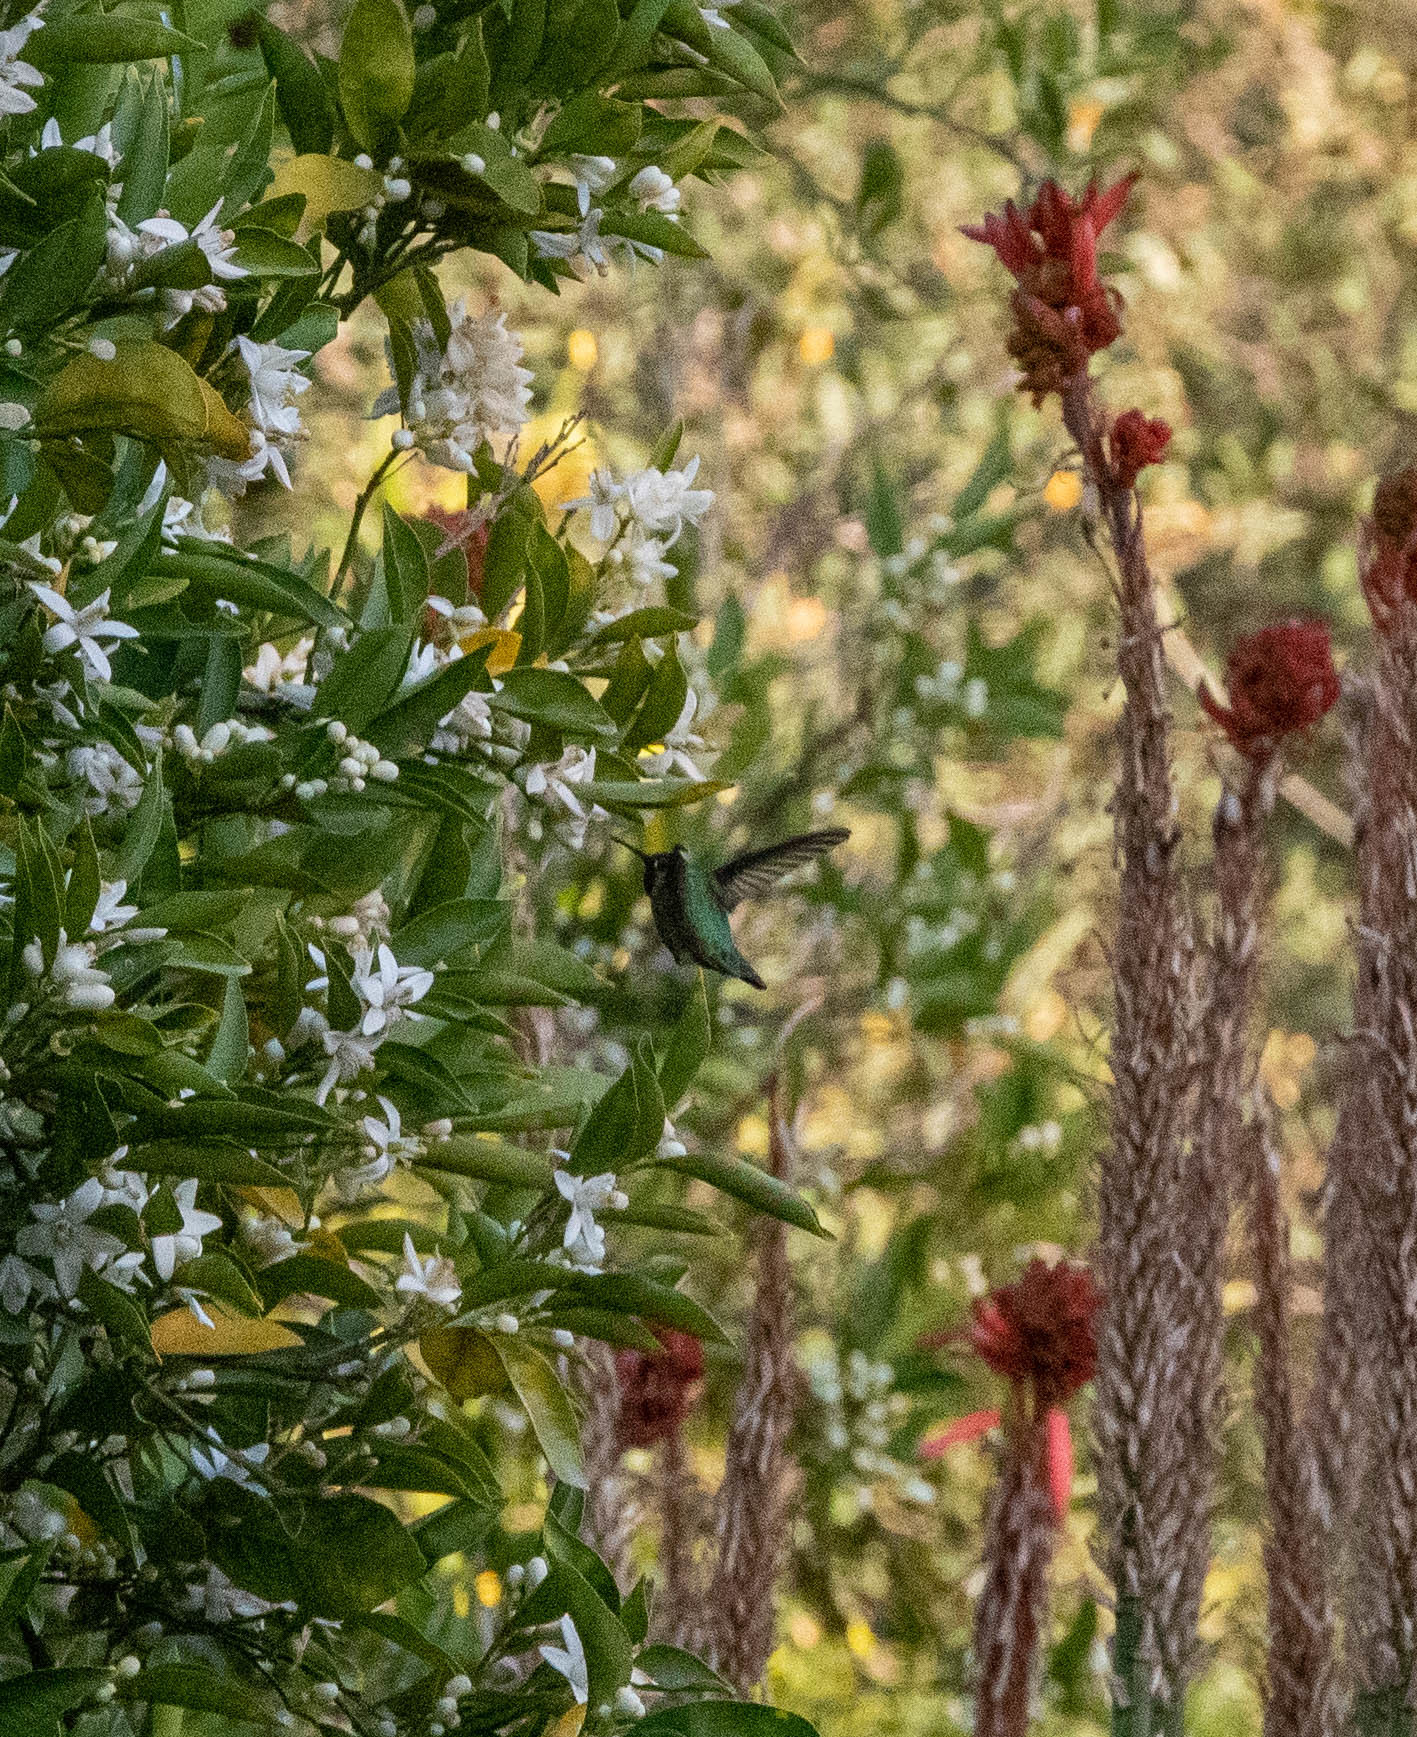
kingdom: Animalia
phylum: Chordata
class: Aves
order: Apodiformes
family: Trochilidae
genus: Calypte
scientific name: Calypte anna
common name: Anna's hummingbird
